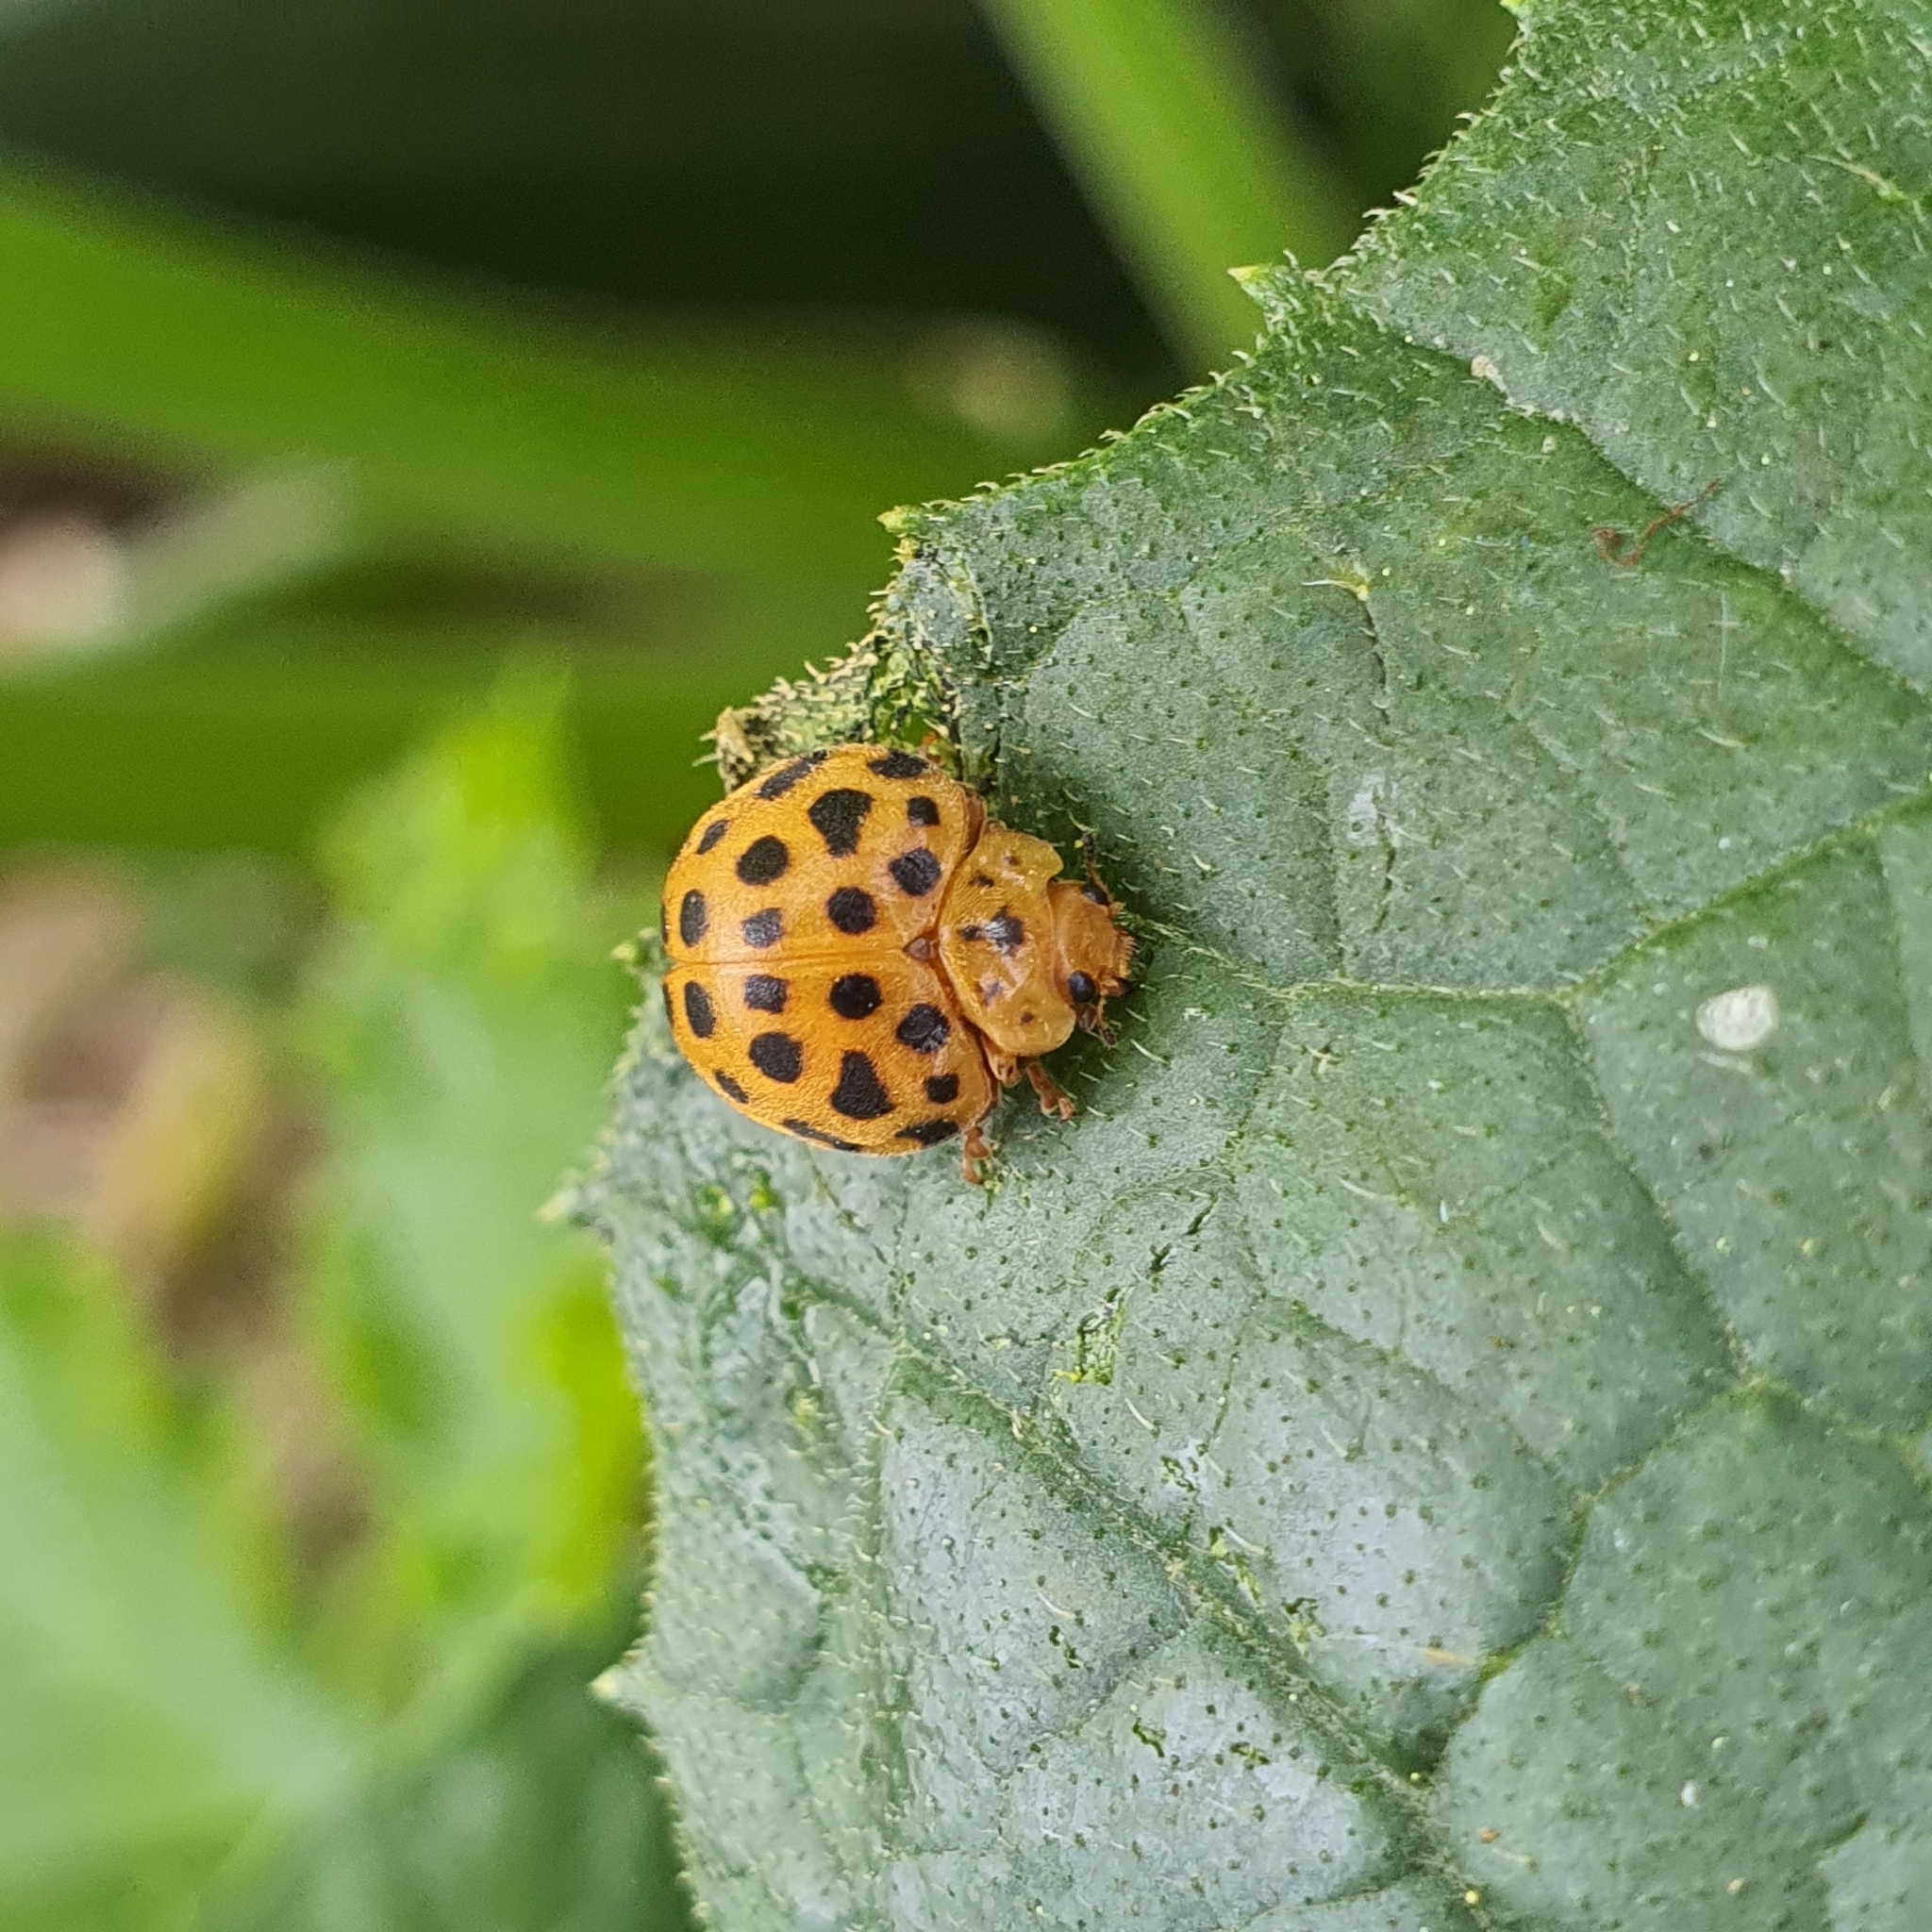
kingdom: Animalia
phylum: Arthropoda
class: Insecta
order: Coleoptera
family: Coccinellidae
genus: Henosepilachna
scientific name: Henosepilachna sumbana
